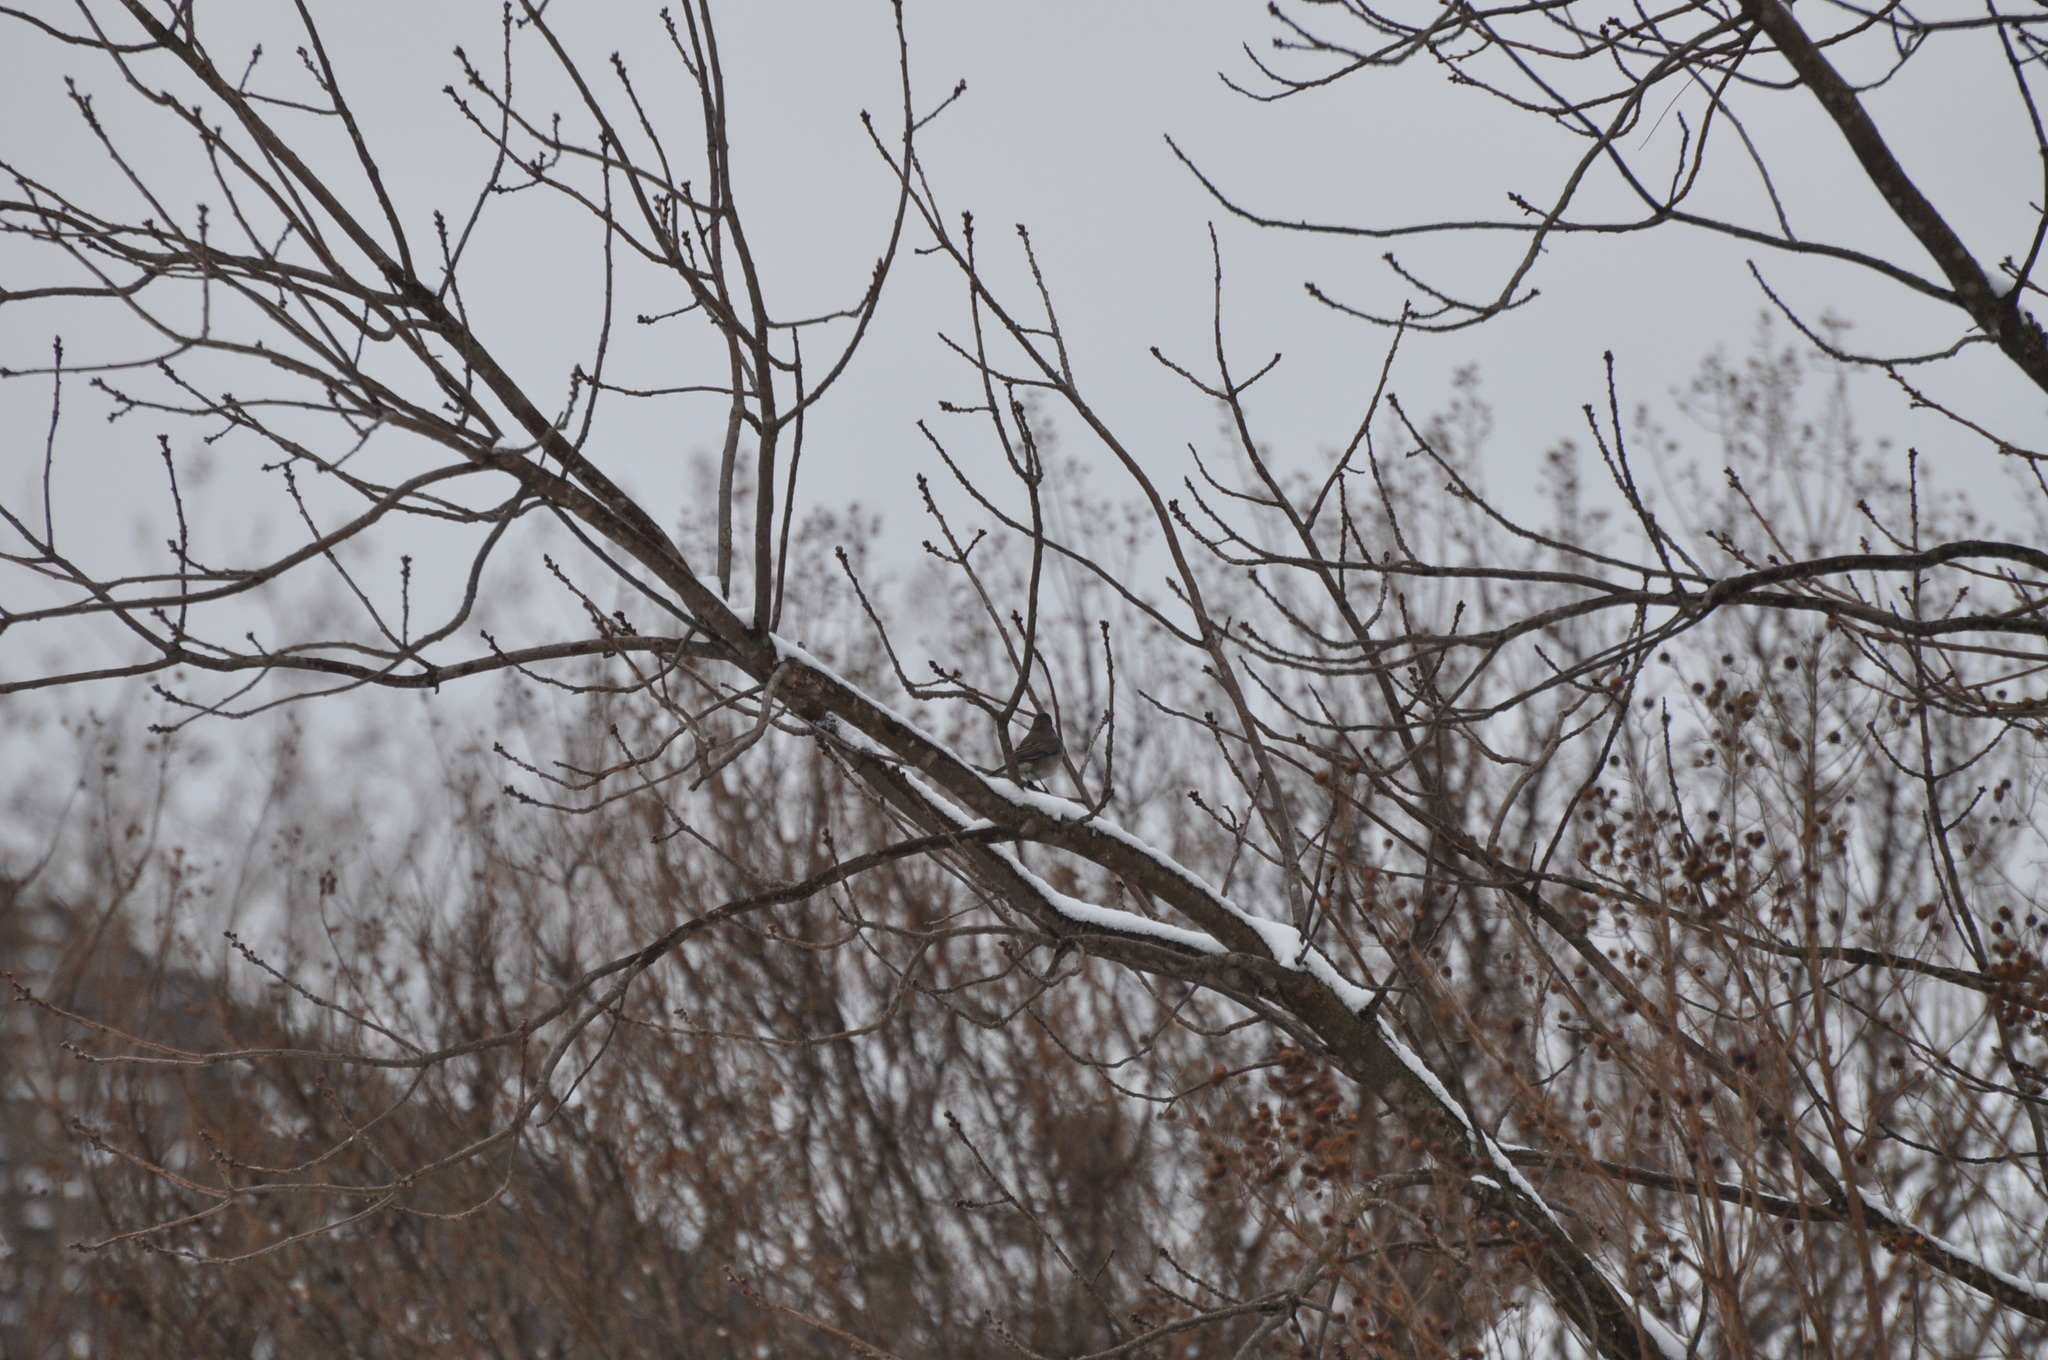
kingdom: Animalia
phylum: Chordata
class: Aves
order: Passeriformes
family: Passerellidae
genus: Junco
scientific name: Junco hyemalis
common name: Dark-eyed junco
